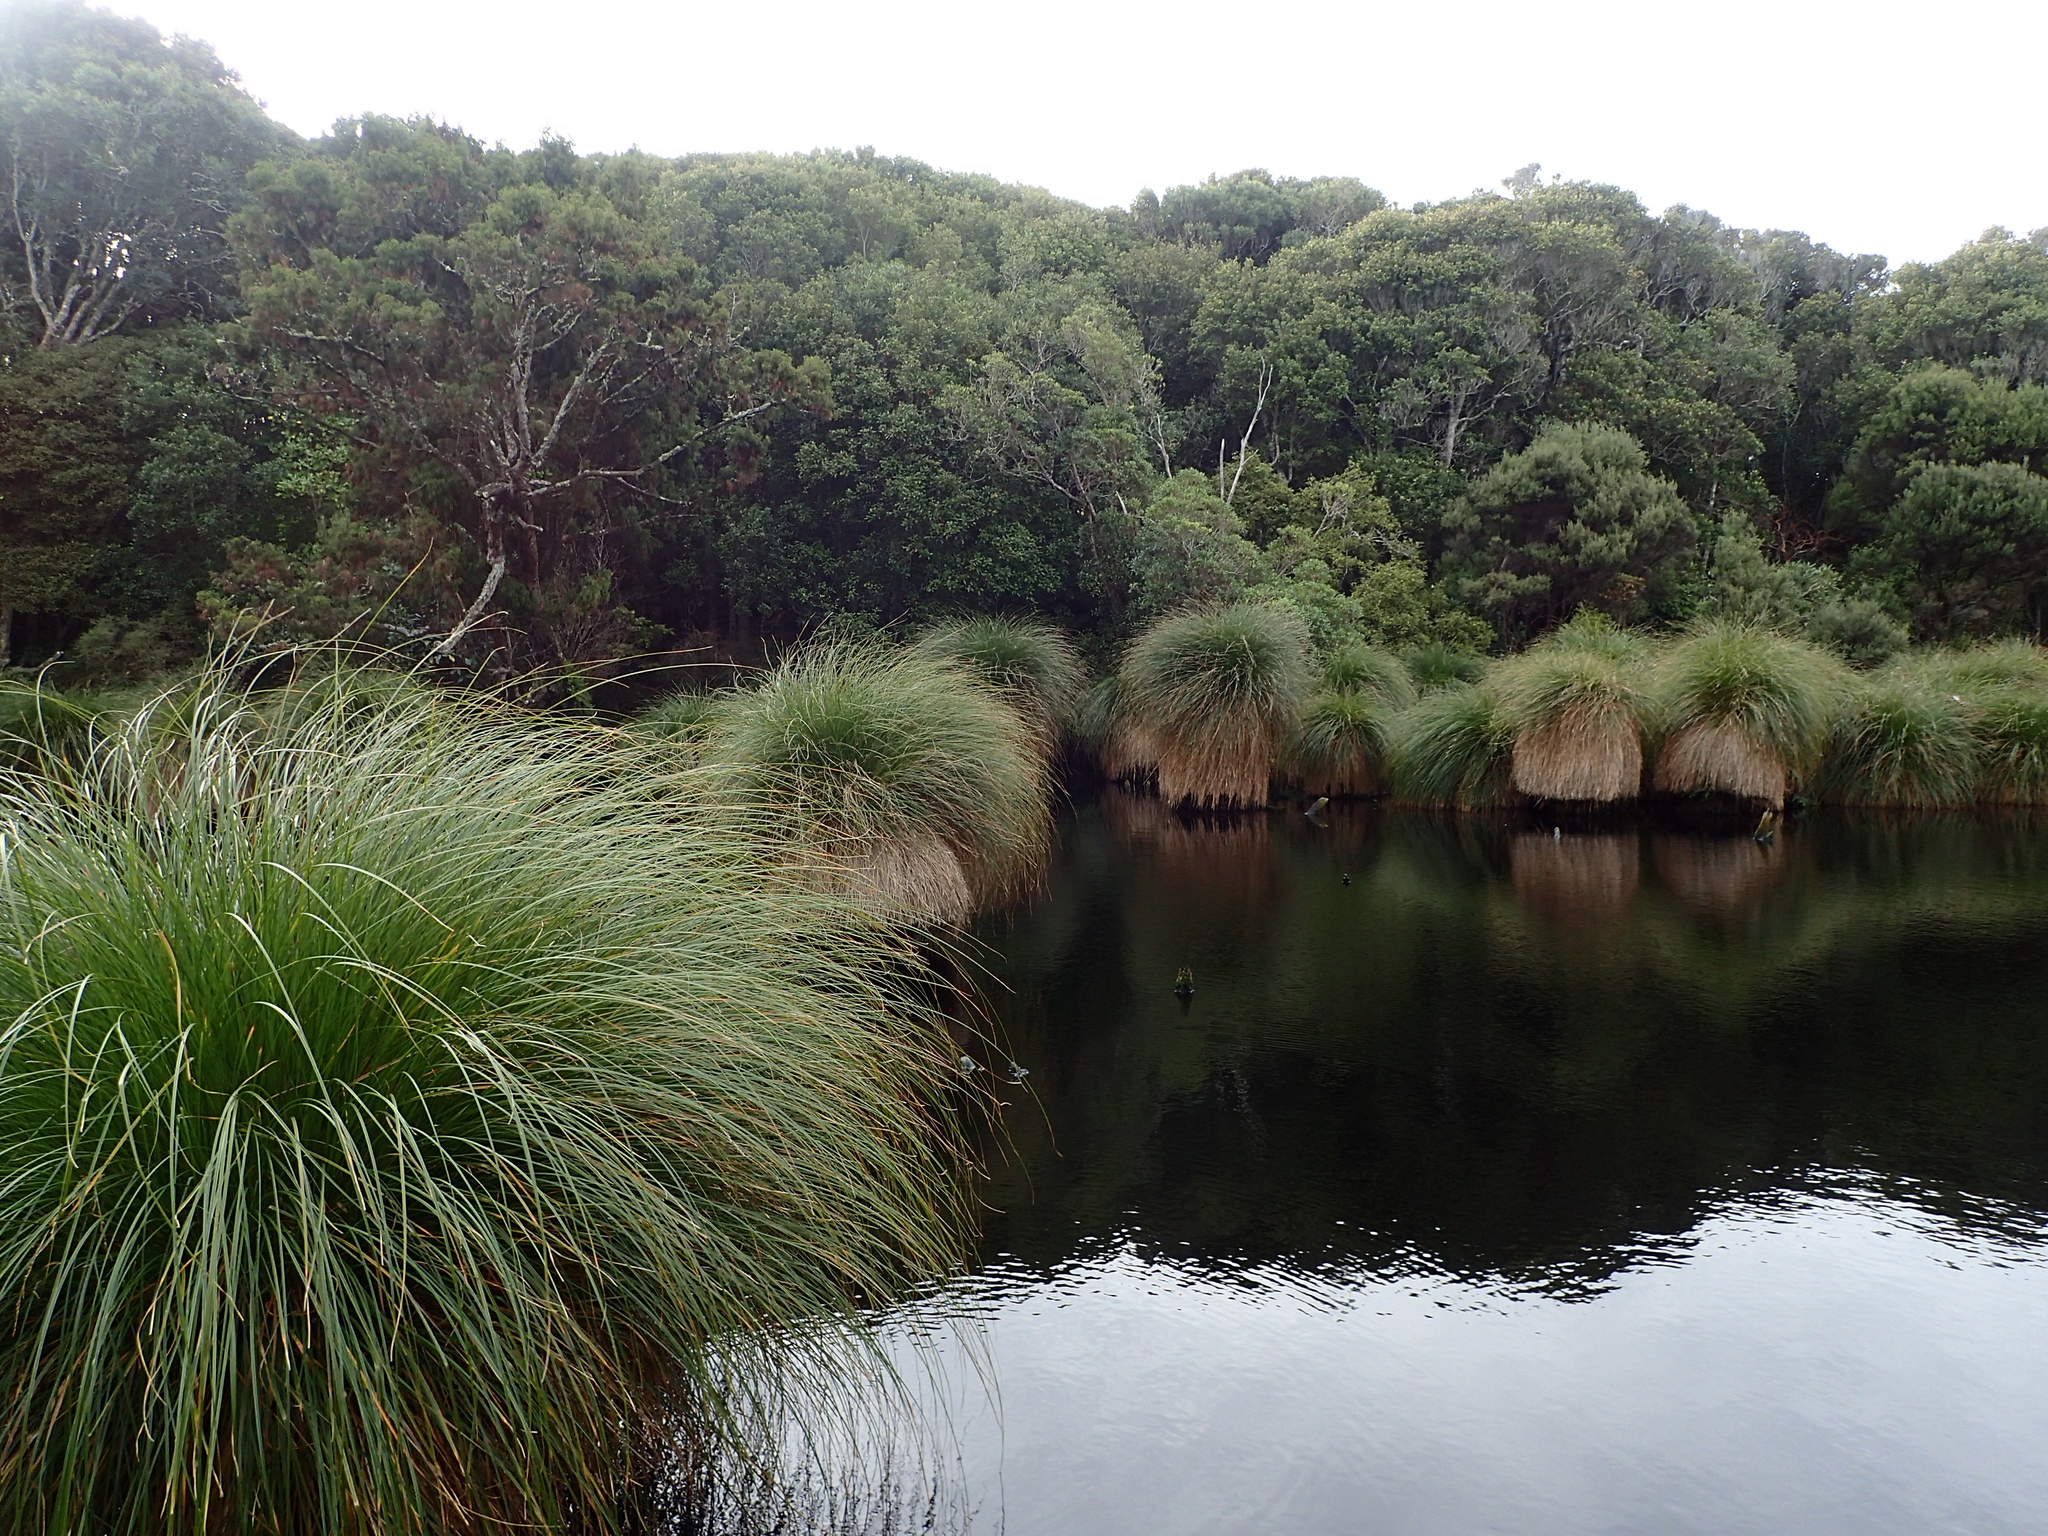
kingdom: Plantae
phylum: Tracheophyta
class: Liliopsida
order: Poales
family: Cyperaceae
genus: Carex
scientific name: Carex secta
